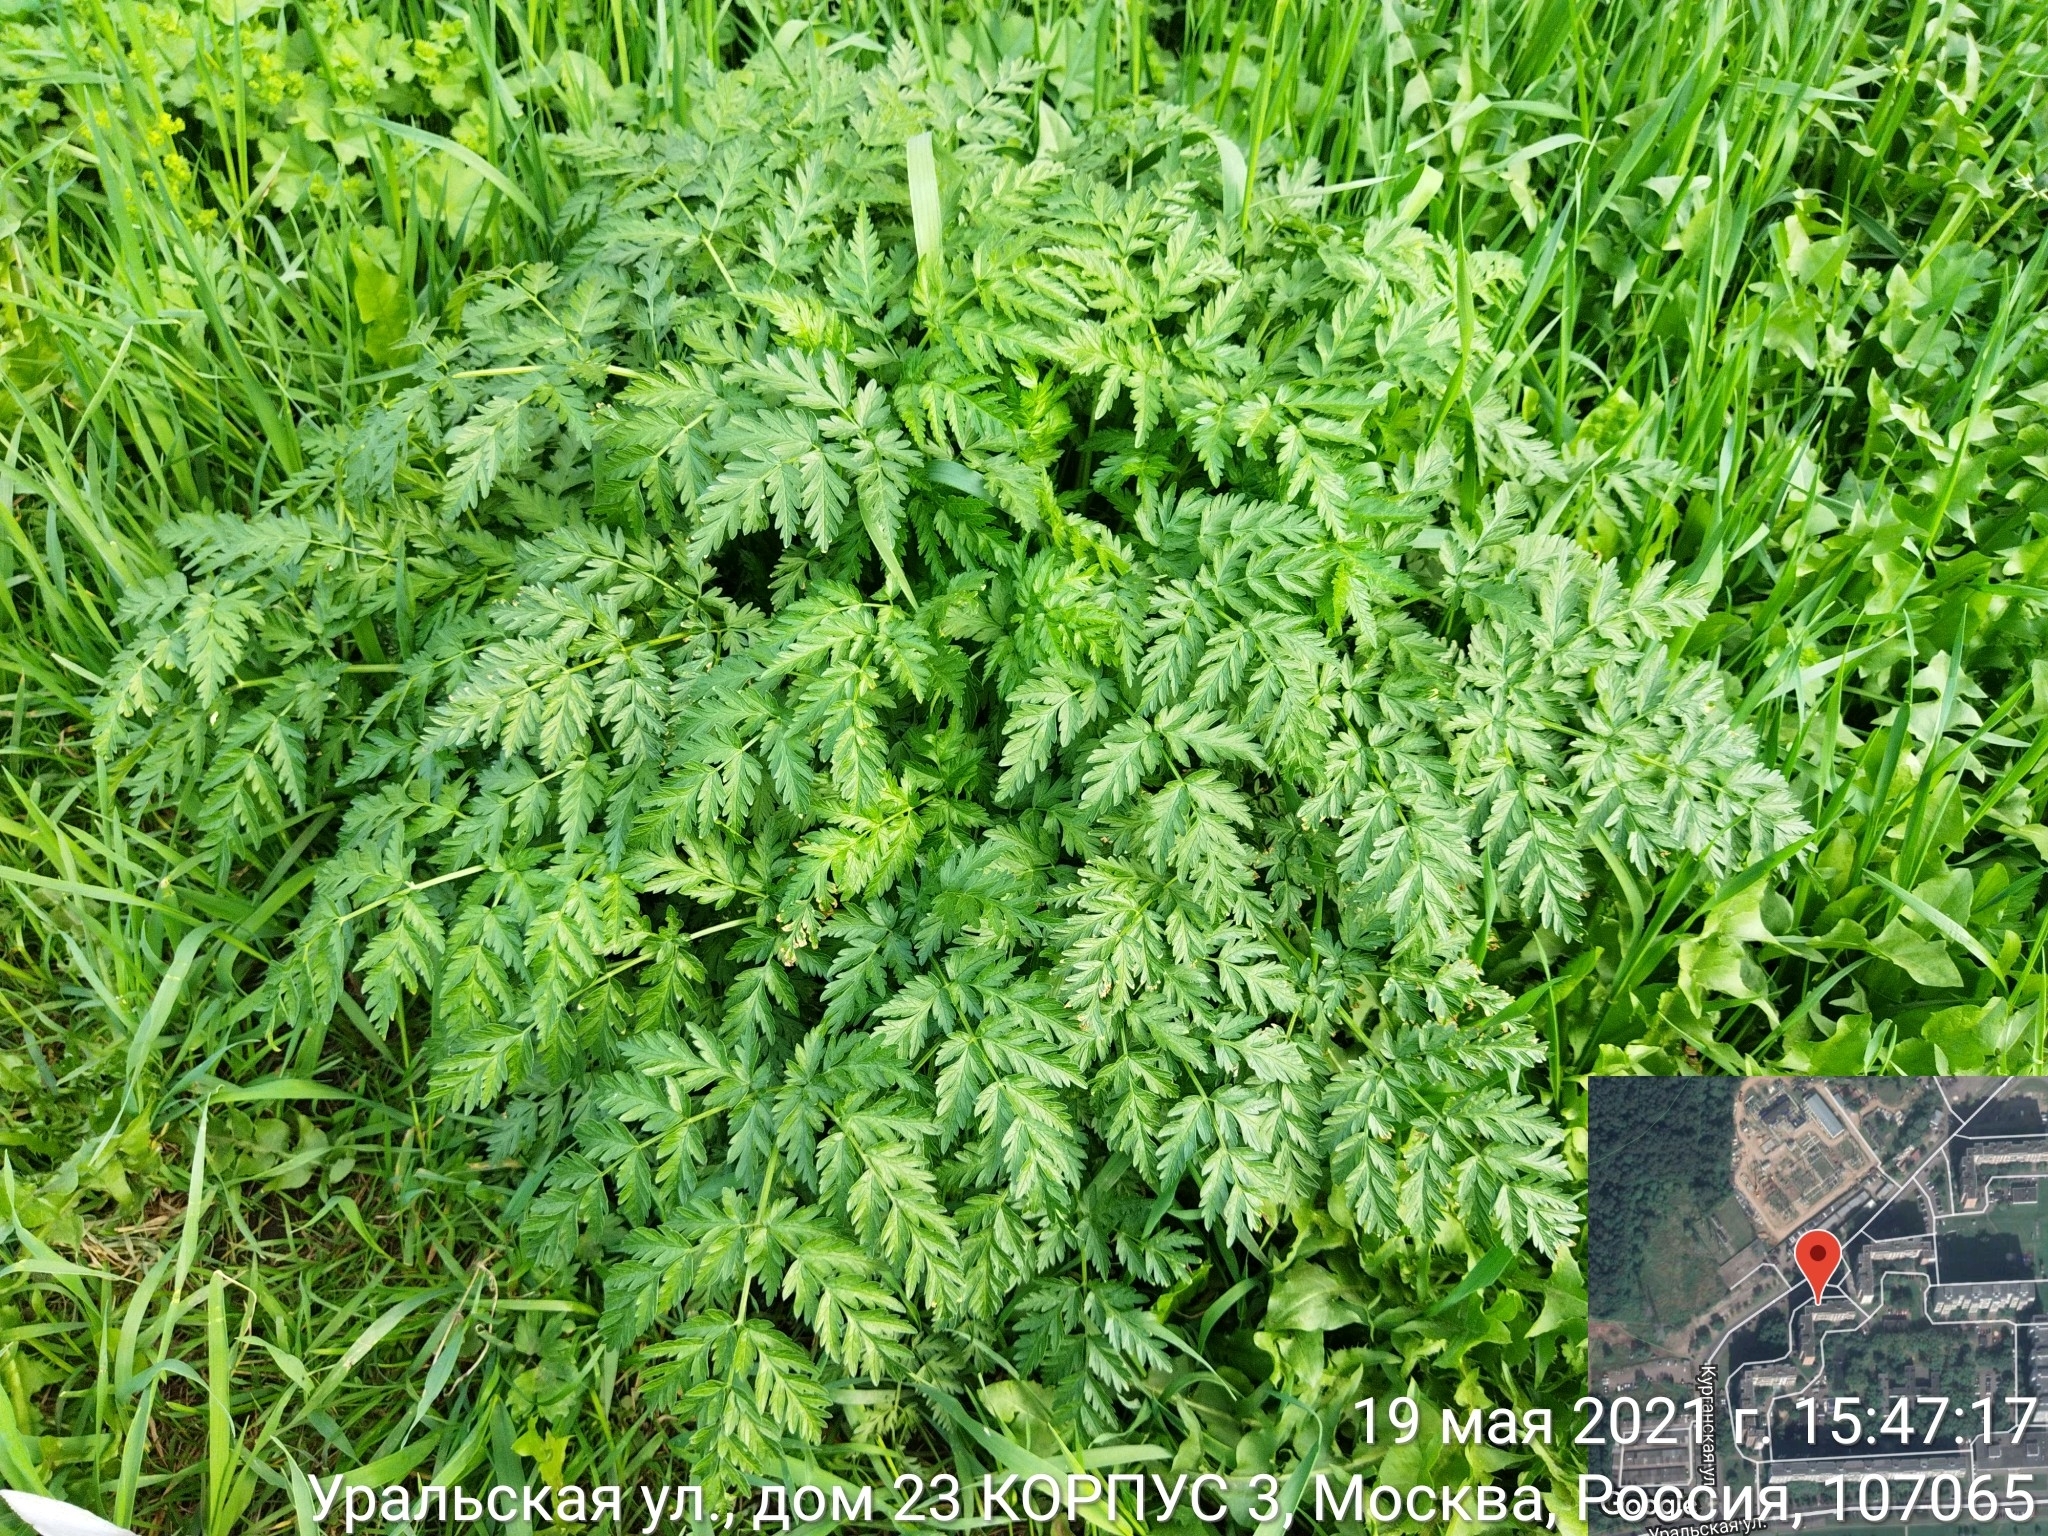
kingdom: Plantae
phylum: Tracheophyta
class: Magnoliopsida
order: Apiales
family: Apiaceae
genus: Anthriscus
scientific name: Anthriscus sylvestris
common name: Cow parsley
